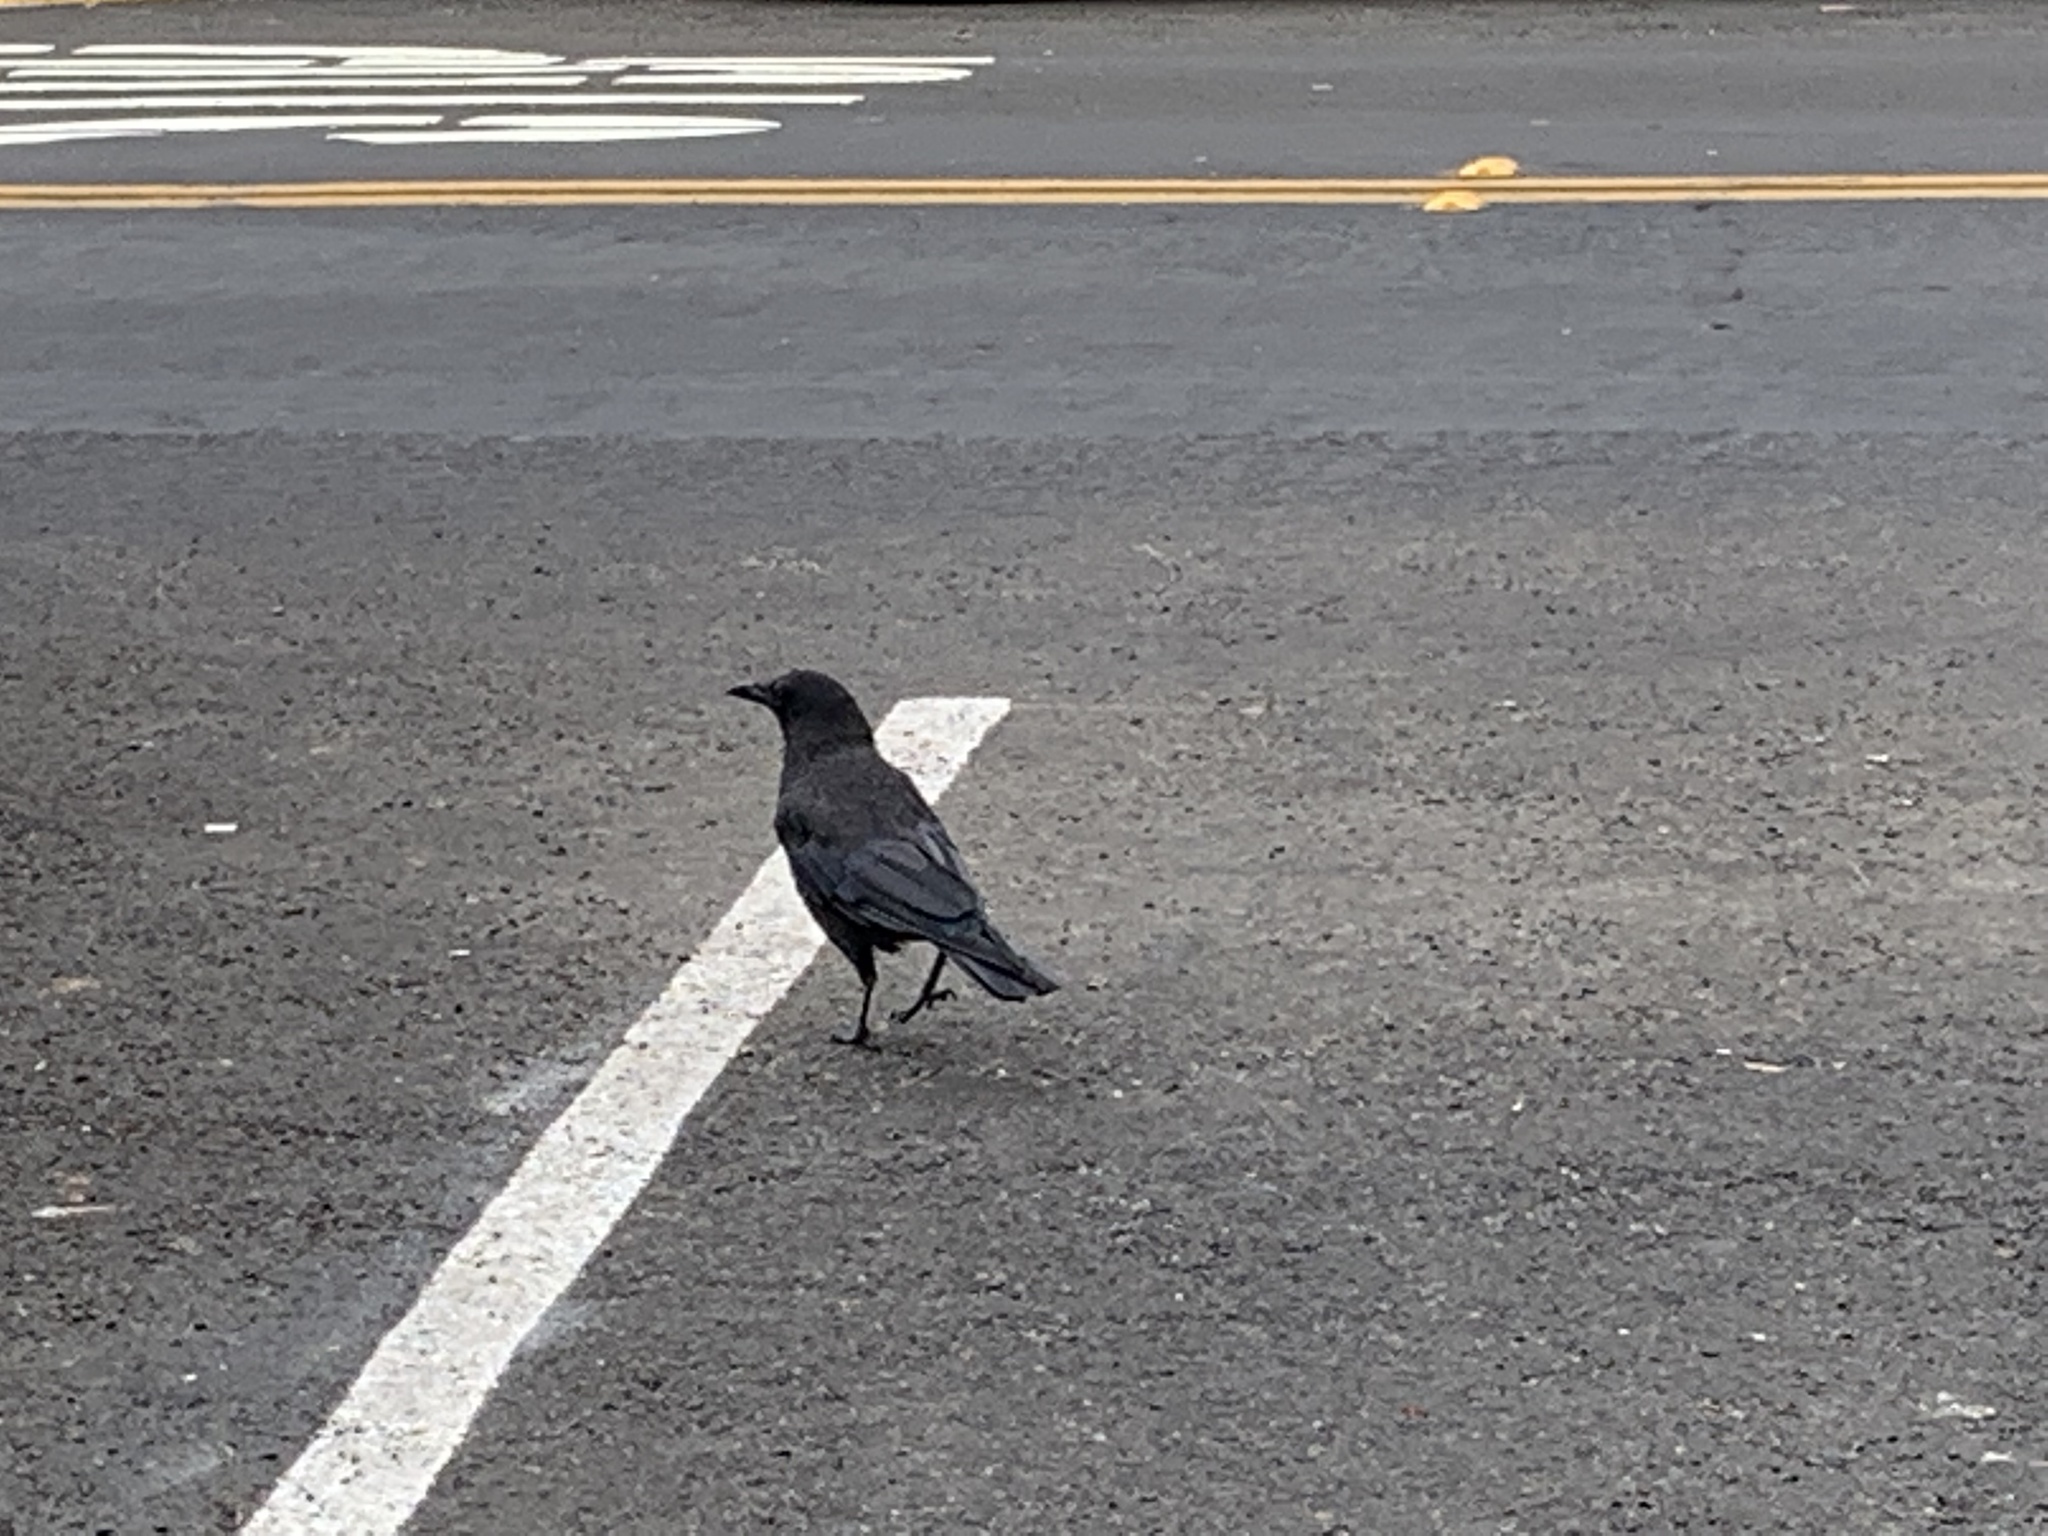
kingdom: Animalia
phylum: Chordata
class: Aves
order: Passeriformes
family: Corvidae
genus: Corvus
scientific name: Corvus brachyrhynchos
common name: American crow
